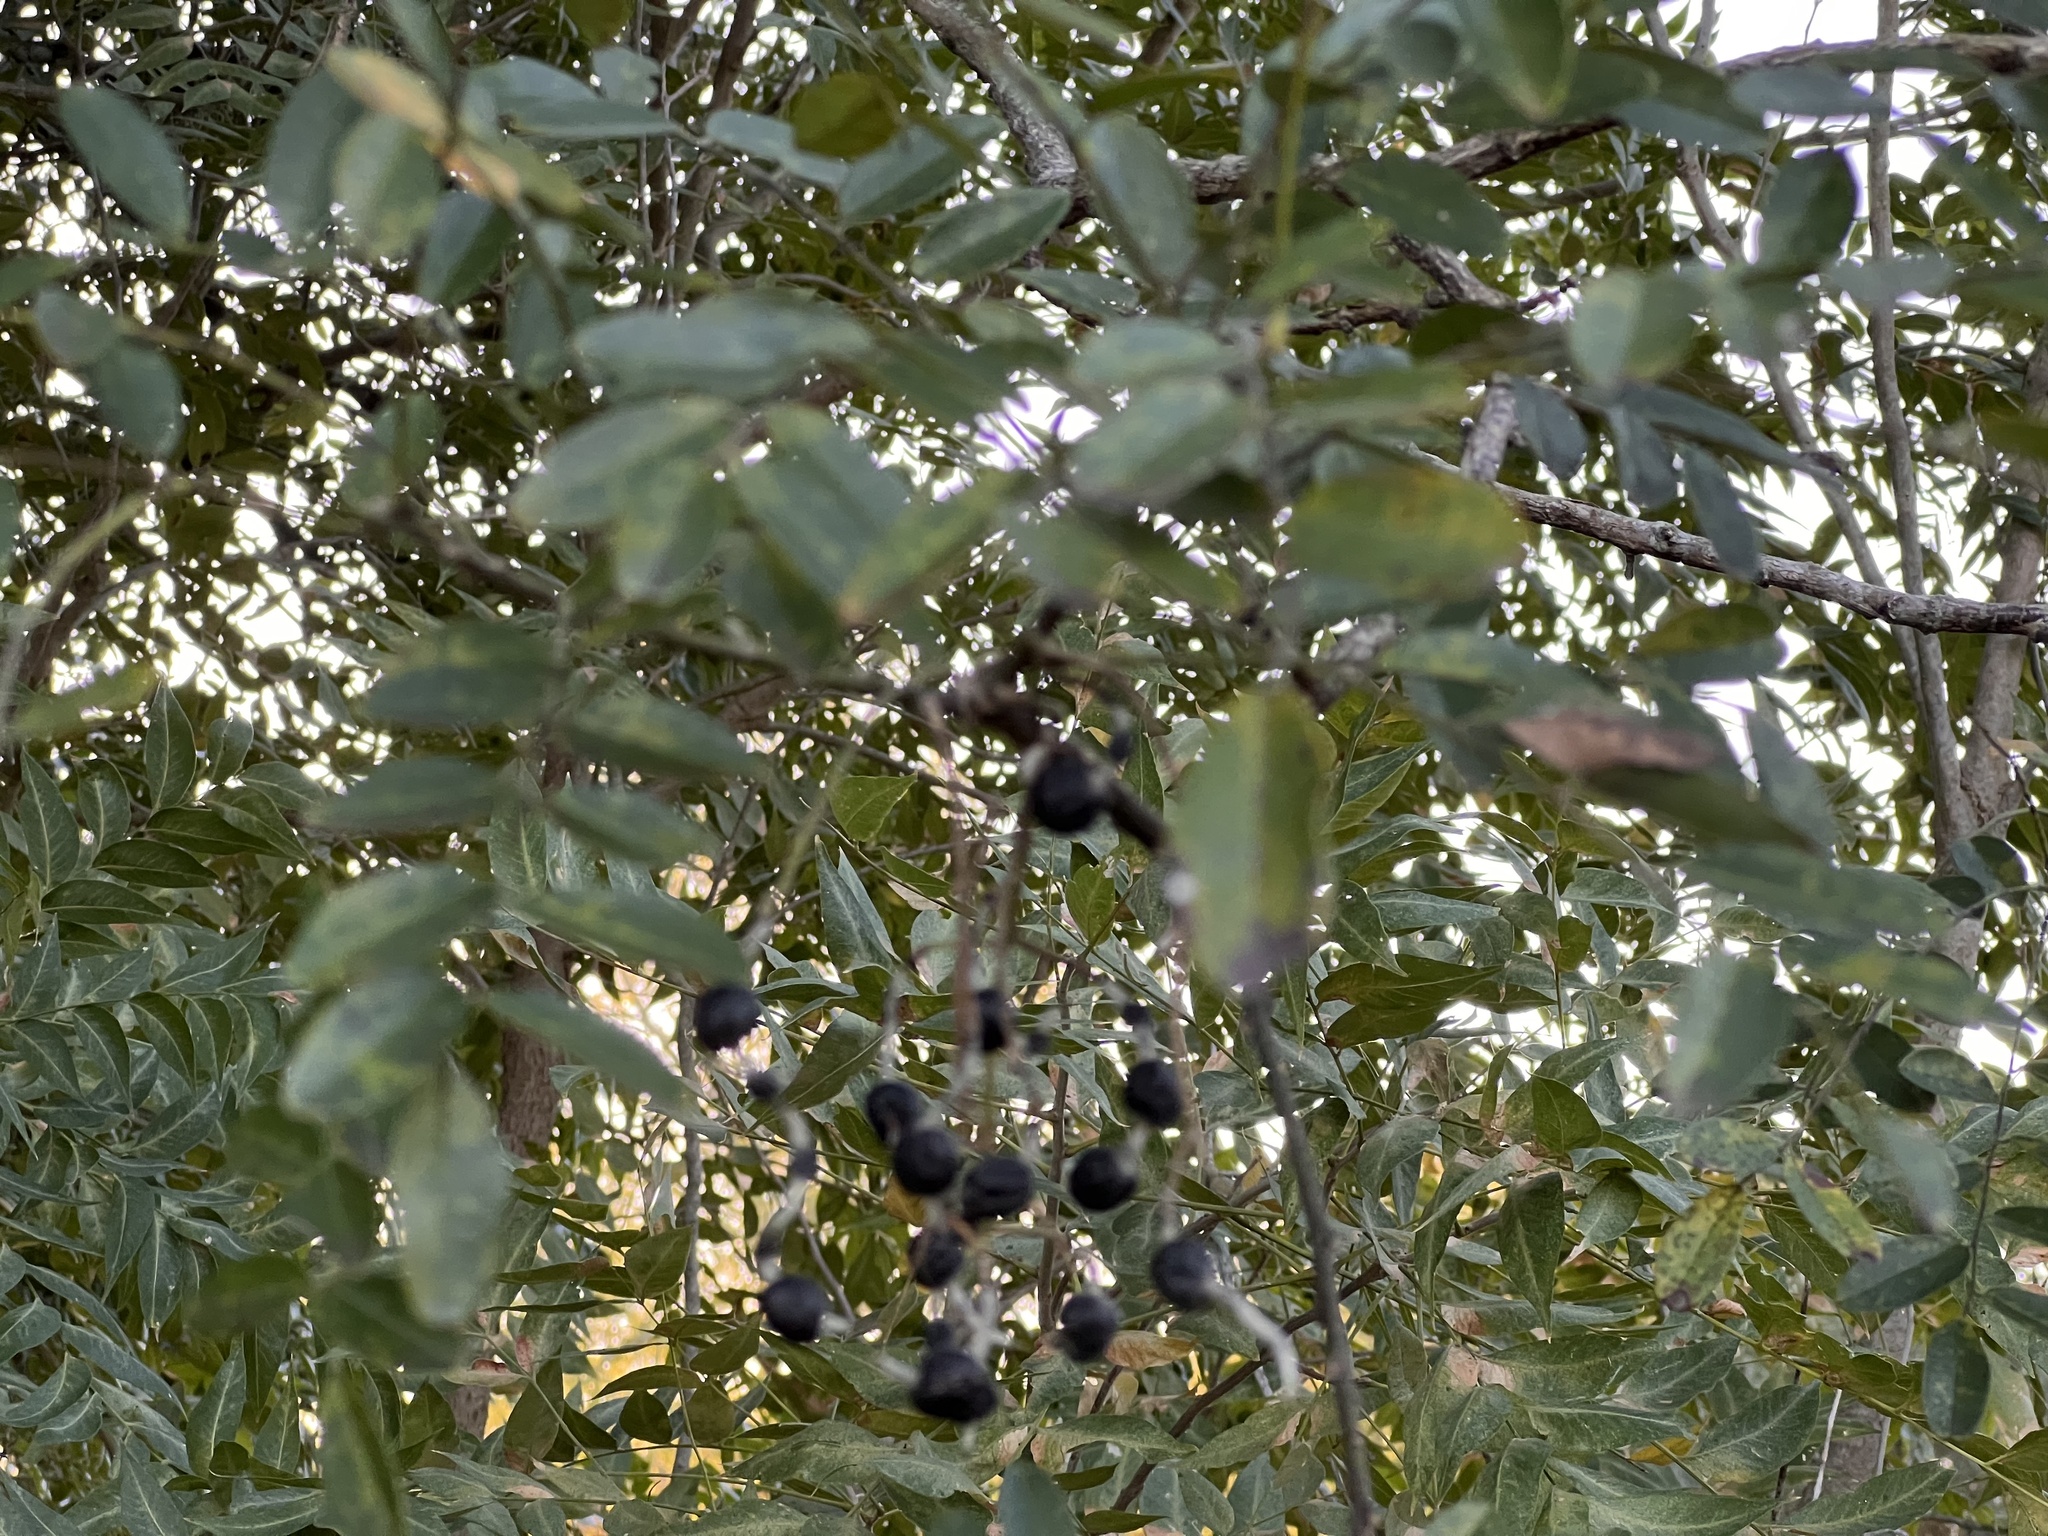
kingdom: Plantae
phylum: Tracheophyta
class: Magnoliopsida
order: Fabales
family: Fabaceae
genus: Styphnolobium
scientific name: Styphnolobium affine
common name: Texas sophora
